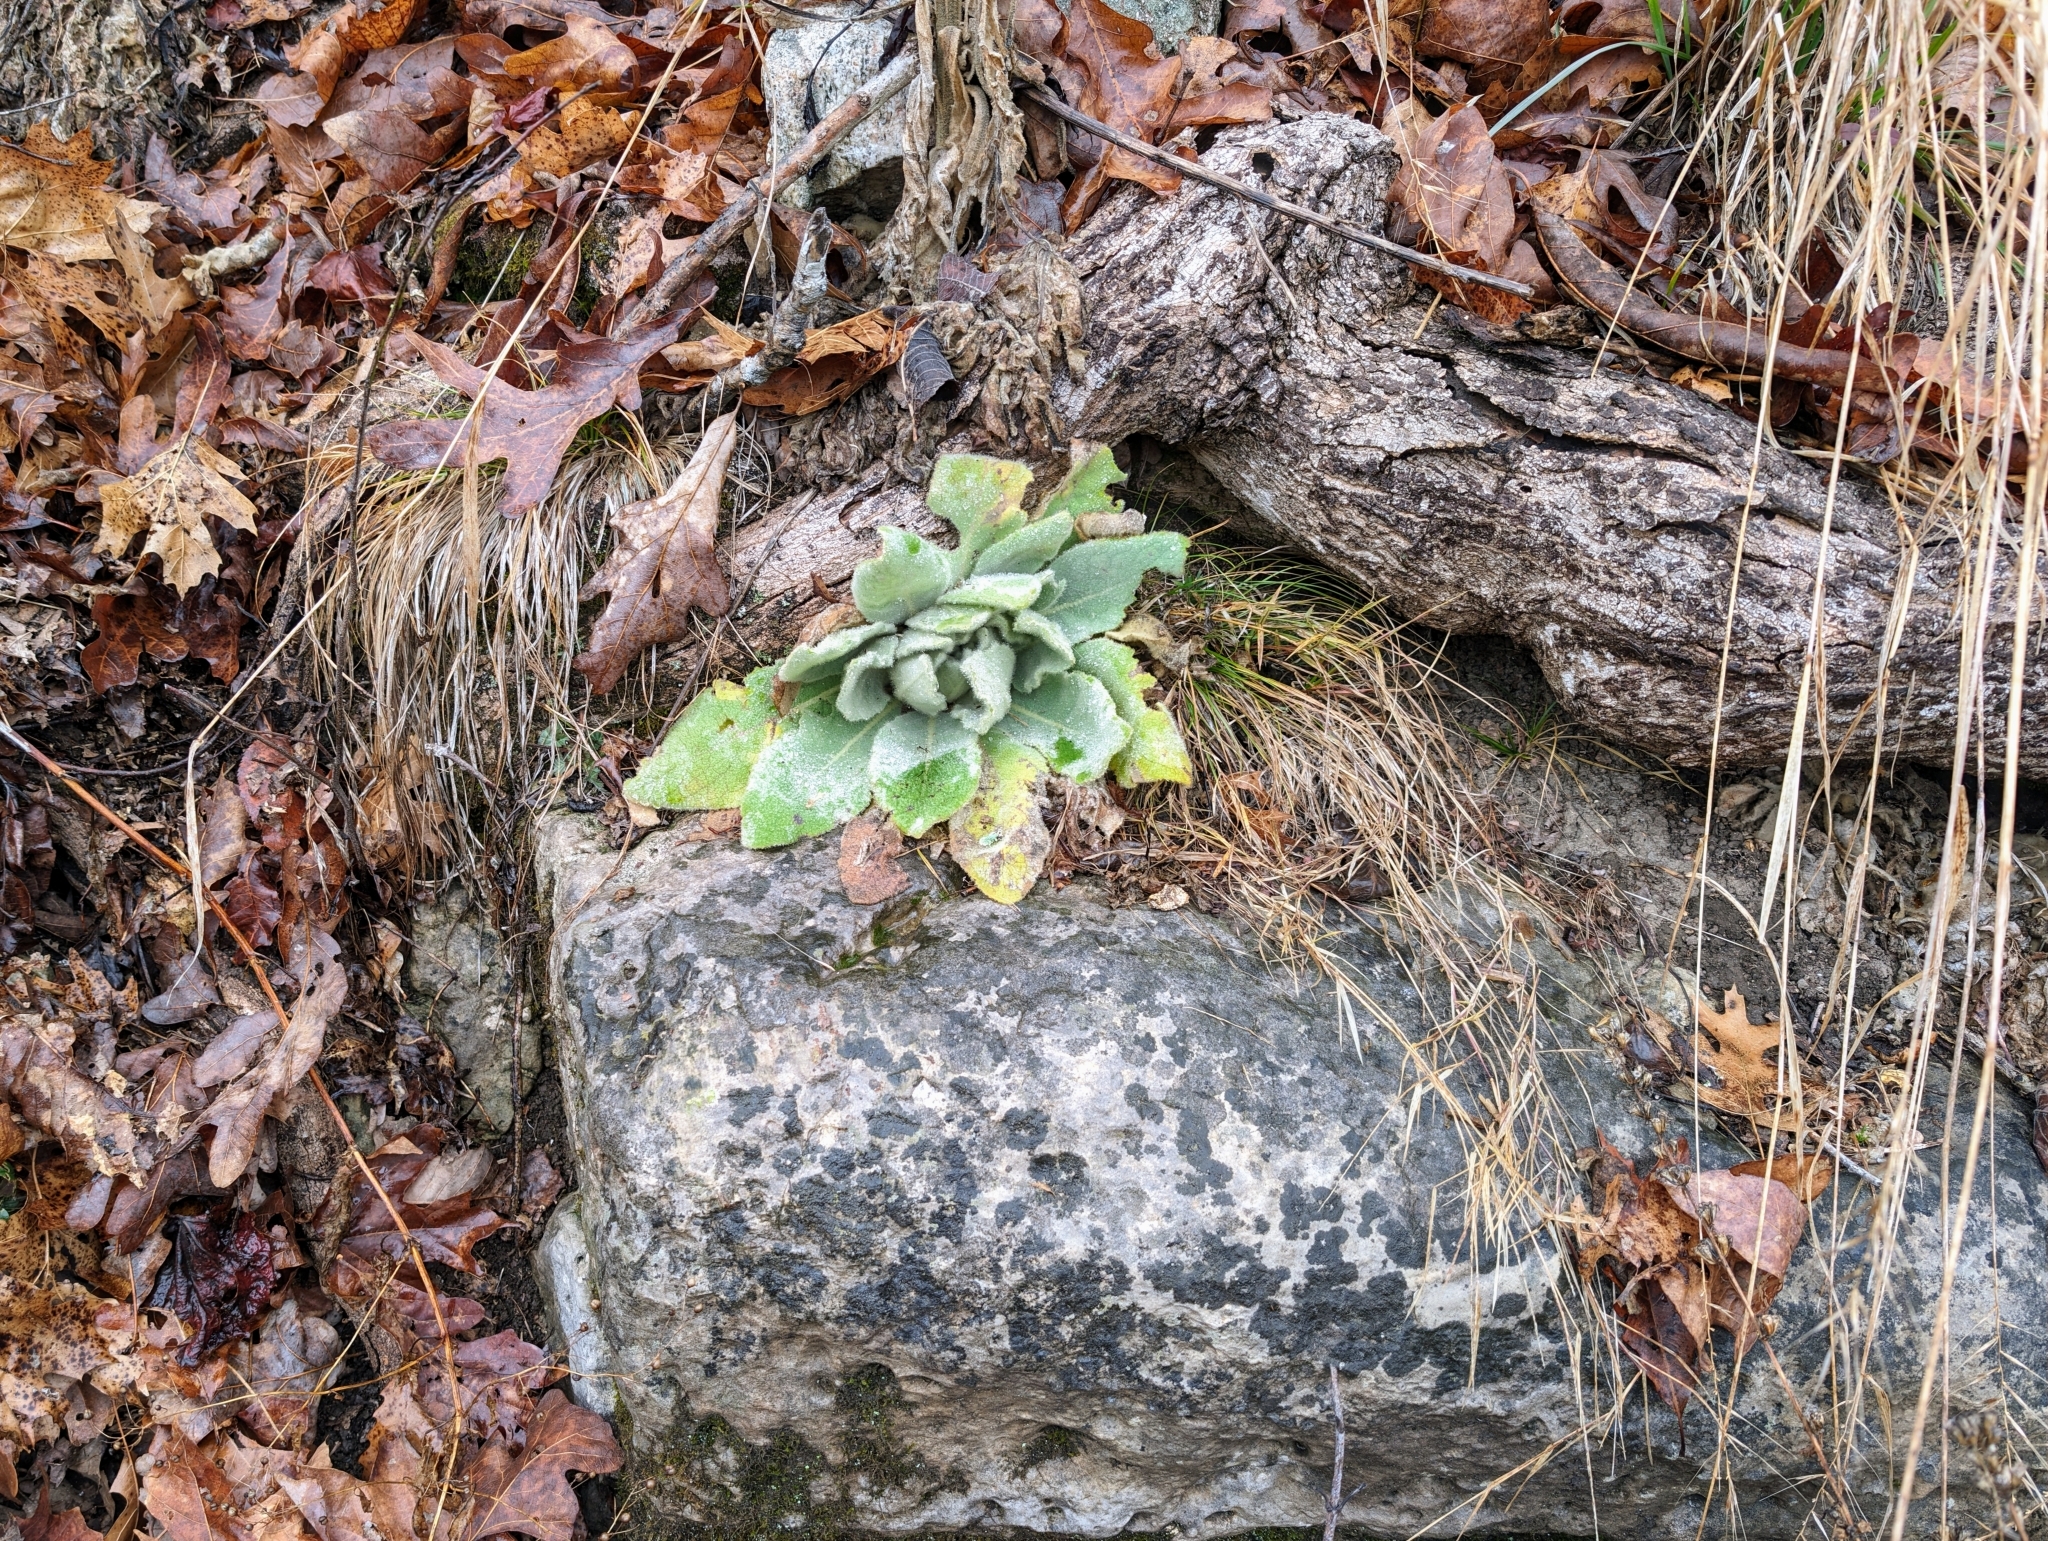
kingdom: Plantae
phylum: Tracheophyta
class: Magnoliopsida
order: Lamiales
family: Scrophulariaceae
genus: Verbascum
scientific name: Verbascum thapsus
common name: Common mullein
